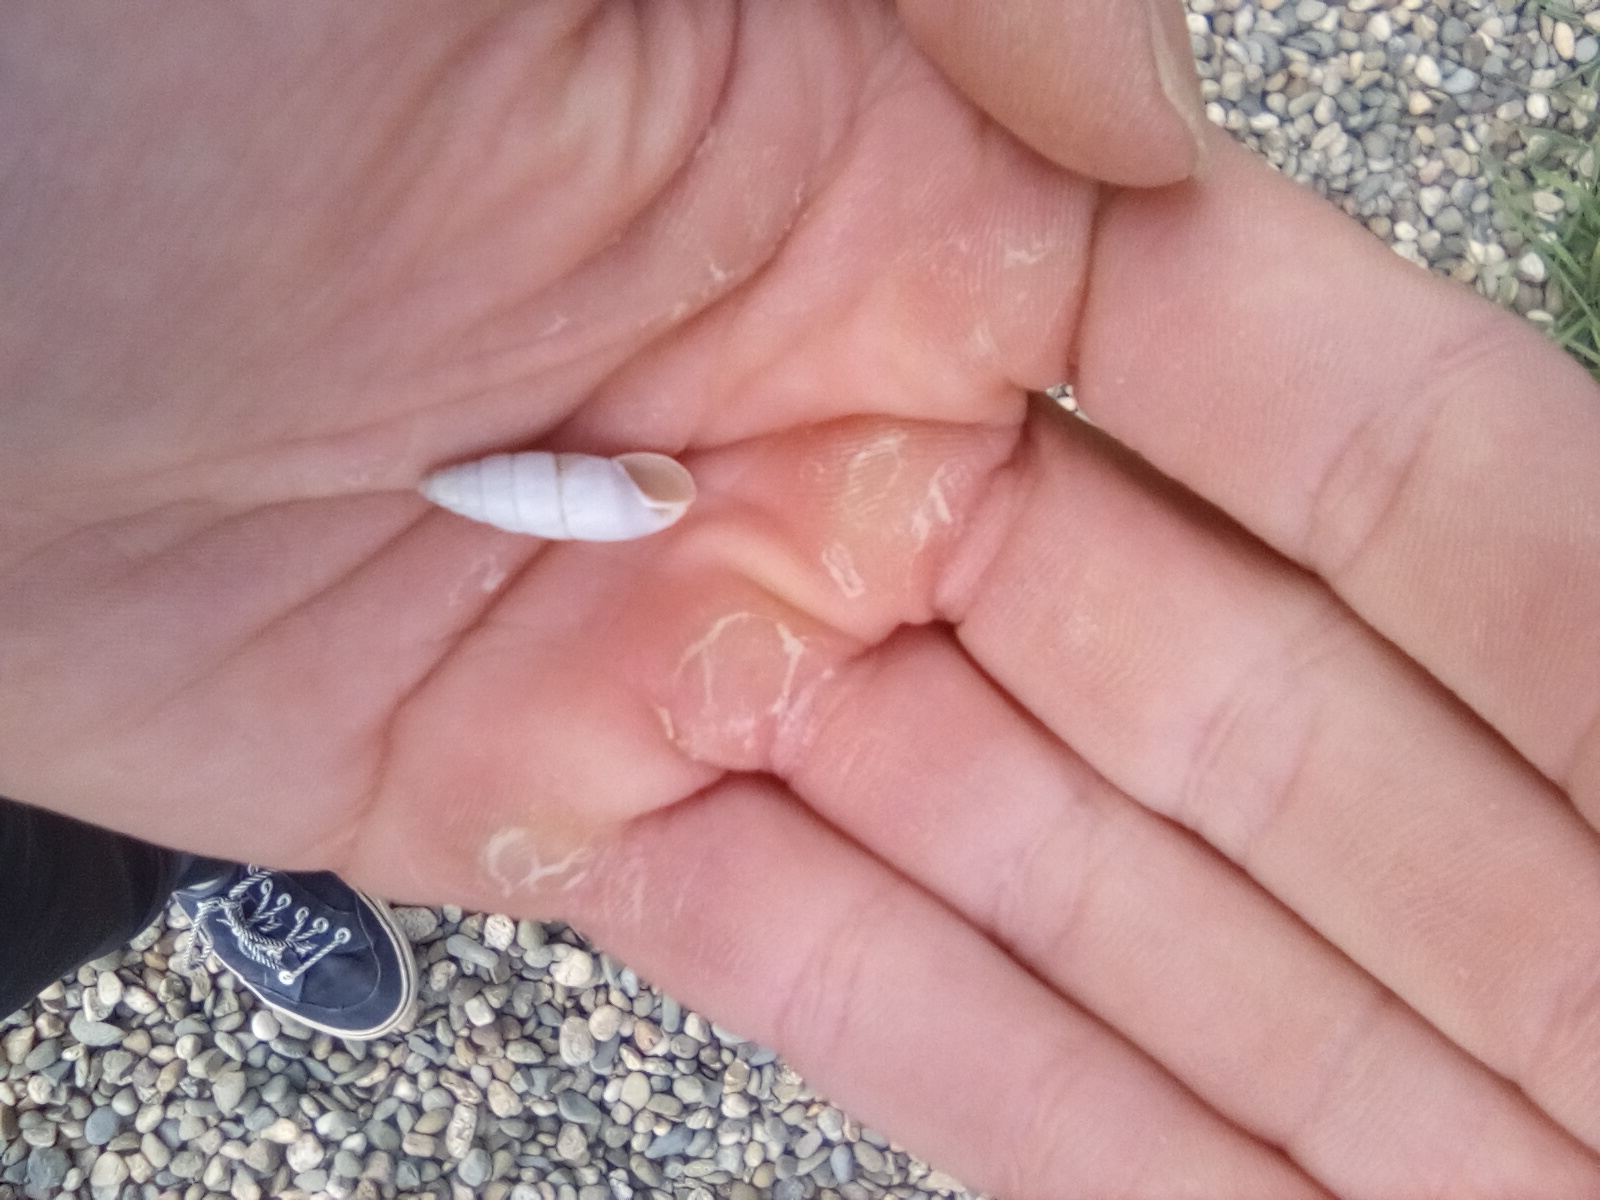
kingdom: Animalia
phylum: Mollusca
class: Gastropoda
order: Stylommatophora
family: Enidae
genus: Brephulopsis
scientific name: Brephulopsis cylindrica
